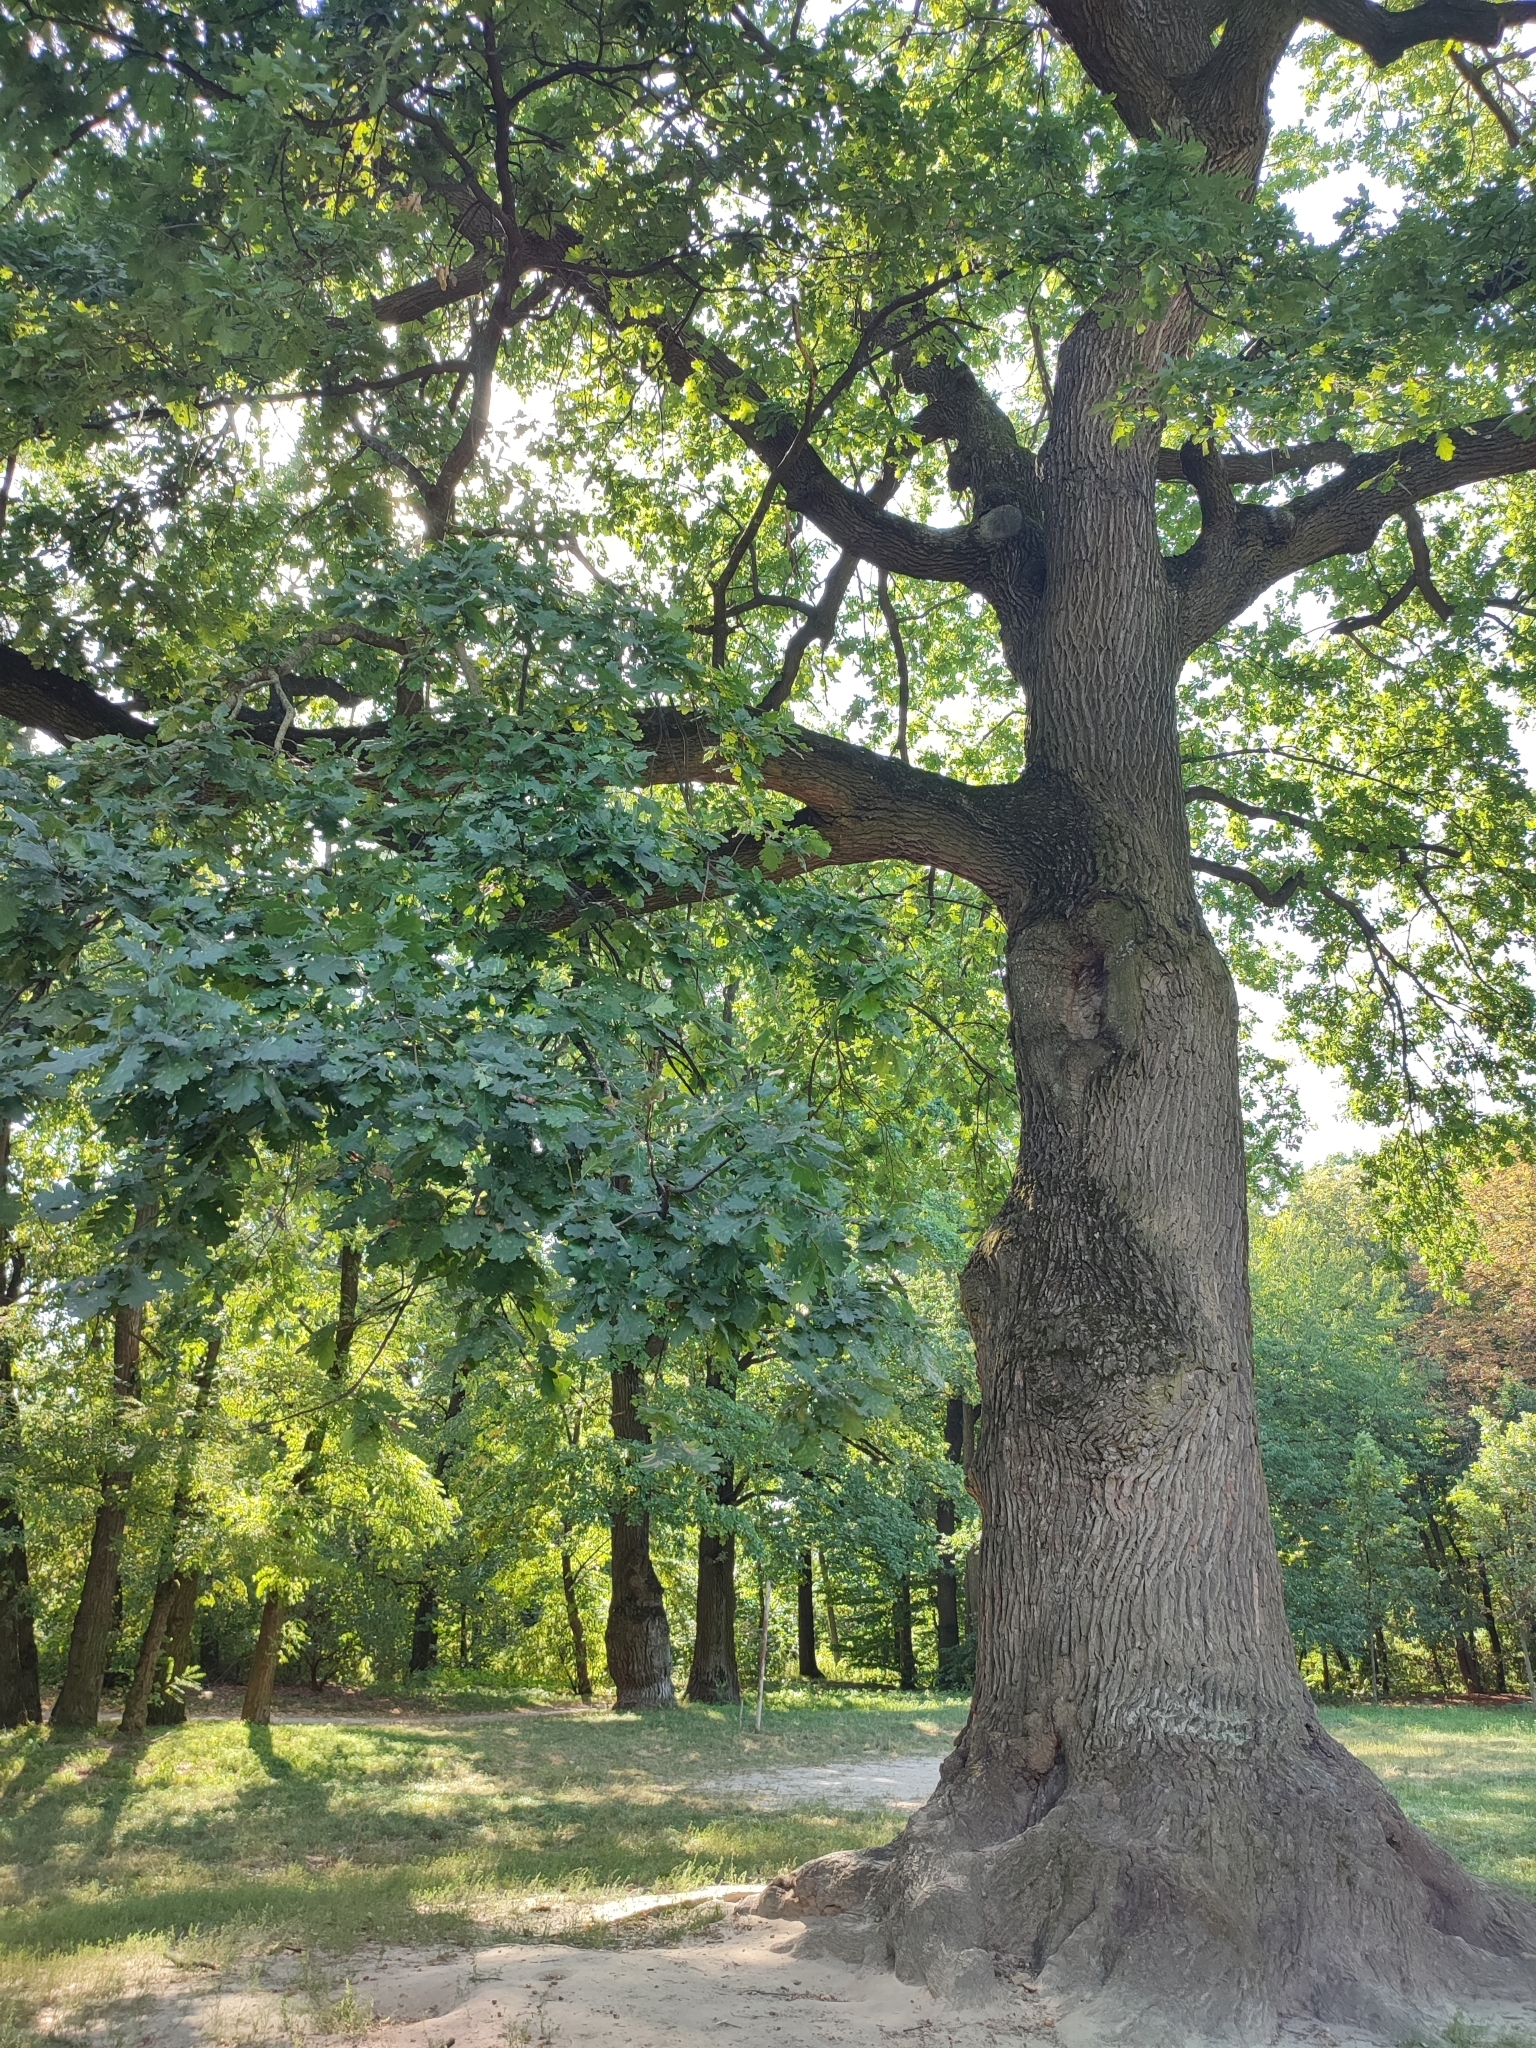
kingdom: Plantae
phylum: Tracheophyta
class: Magnoliopsida
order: Fagales
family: Fagaceae
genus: Quercus
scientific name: Quercus robur
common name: Pedunculate oak
